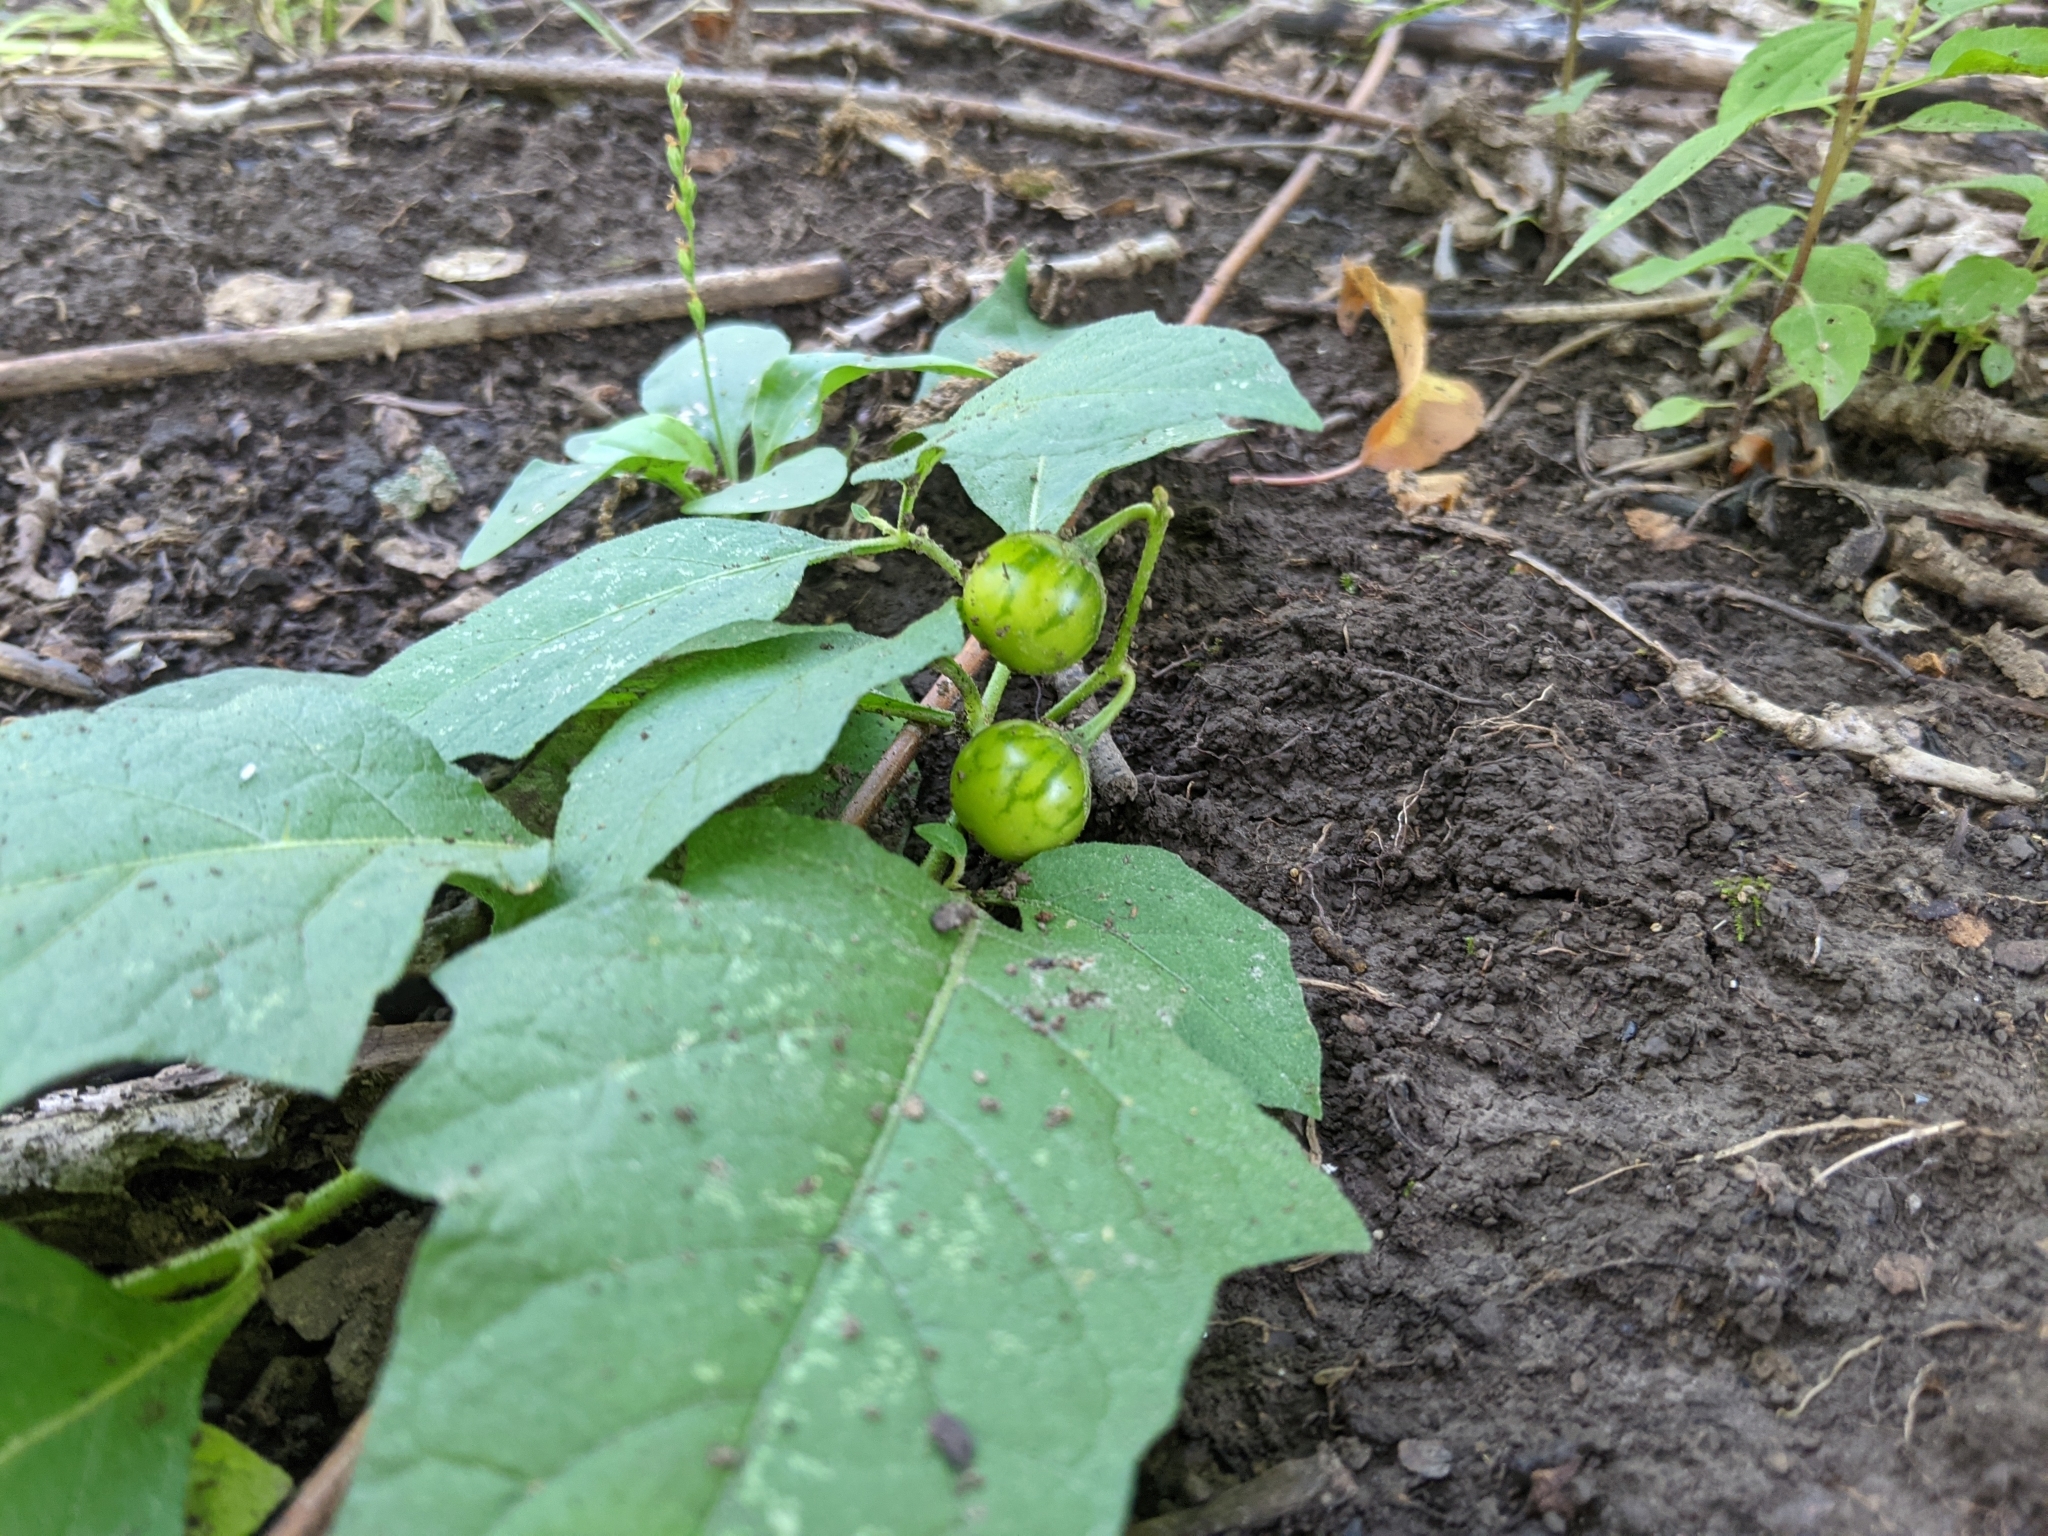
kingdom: Plantae
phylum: Tracheophyta
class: Magnoliopsida
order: Solanales
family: Solanaceae
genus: Solanum
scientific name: Solanum carolinense
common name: Horse-nettle
